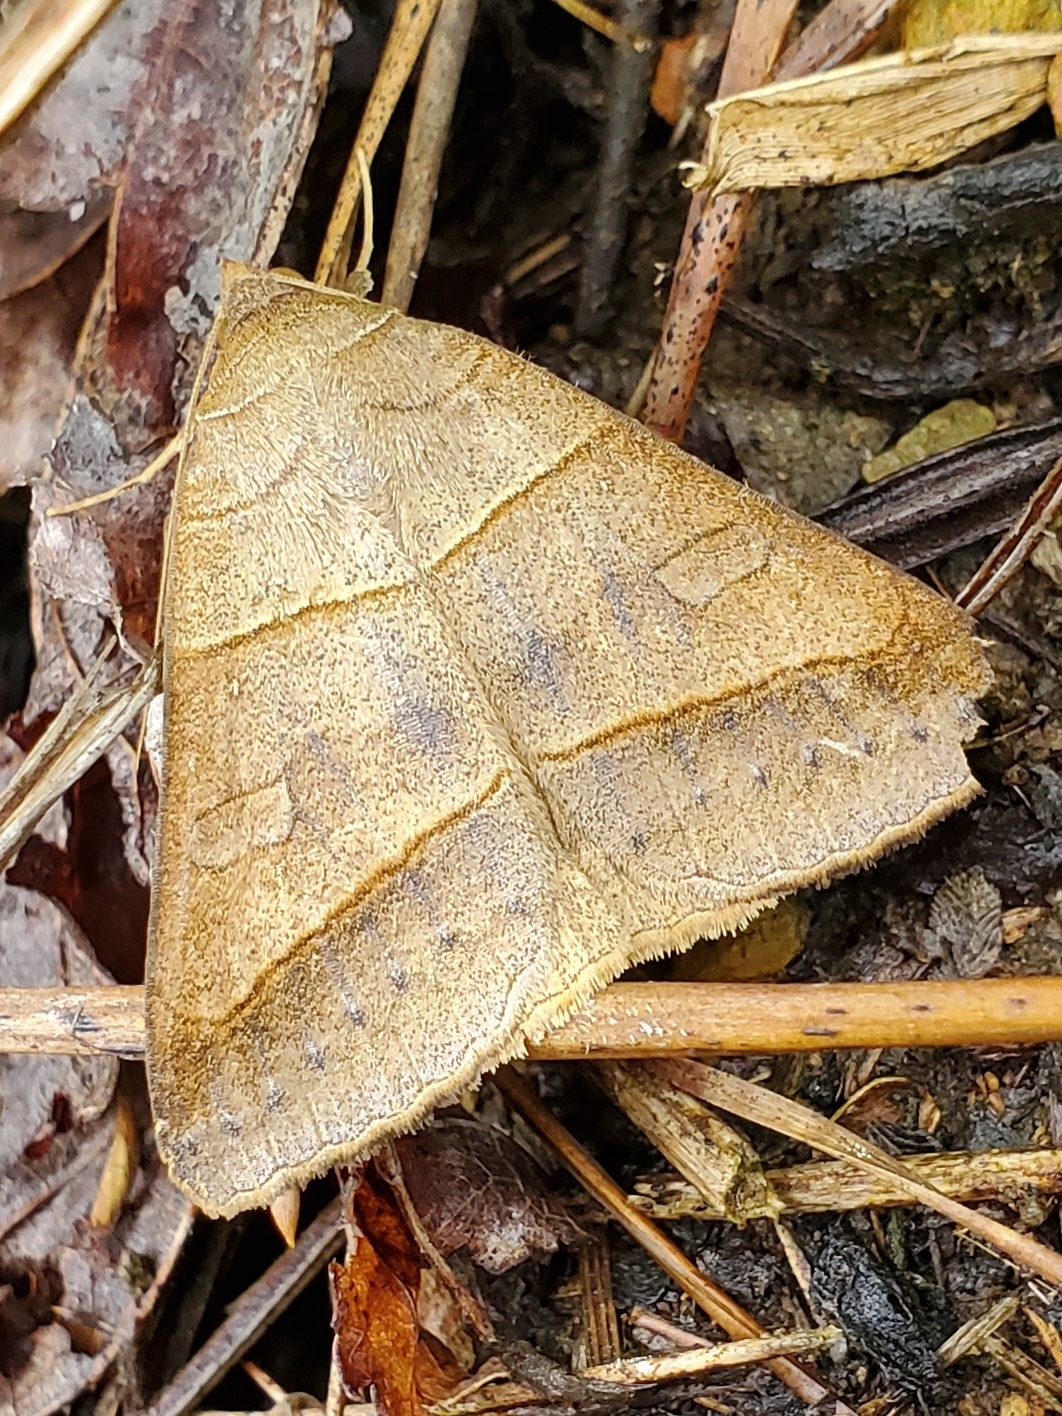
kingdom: Animalia
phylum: Arthropoda
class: Insecta
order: Lepidoptera
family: Erebidae
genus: Mocis
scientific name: Mocis texana
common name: Texas mocis moth
